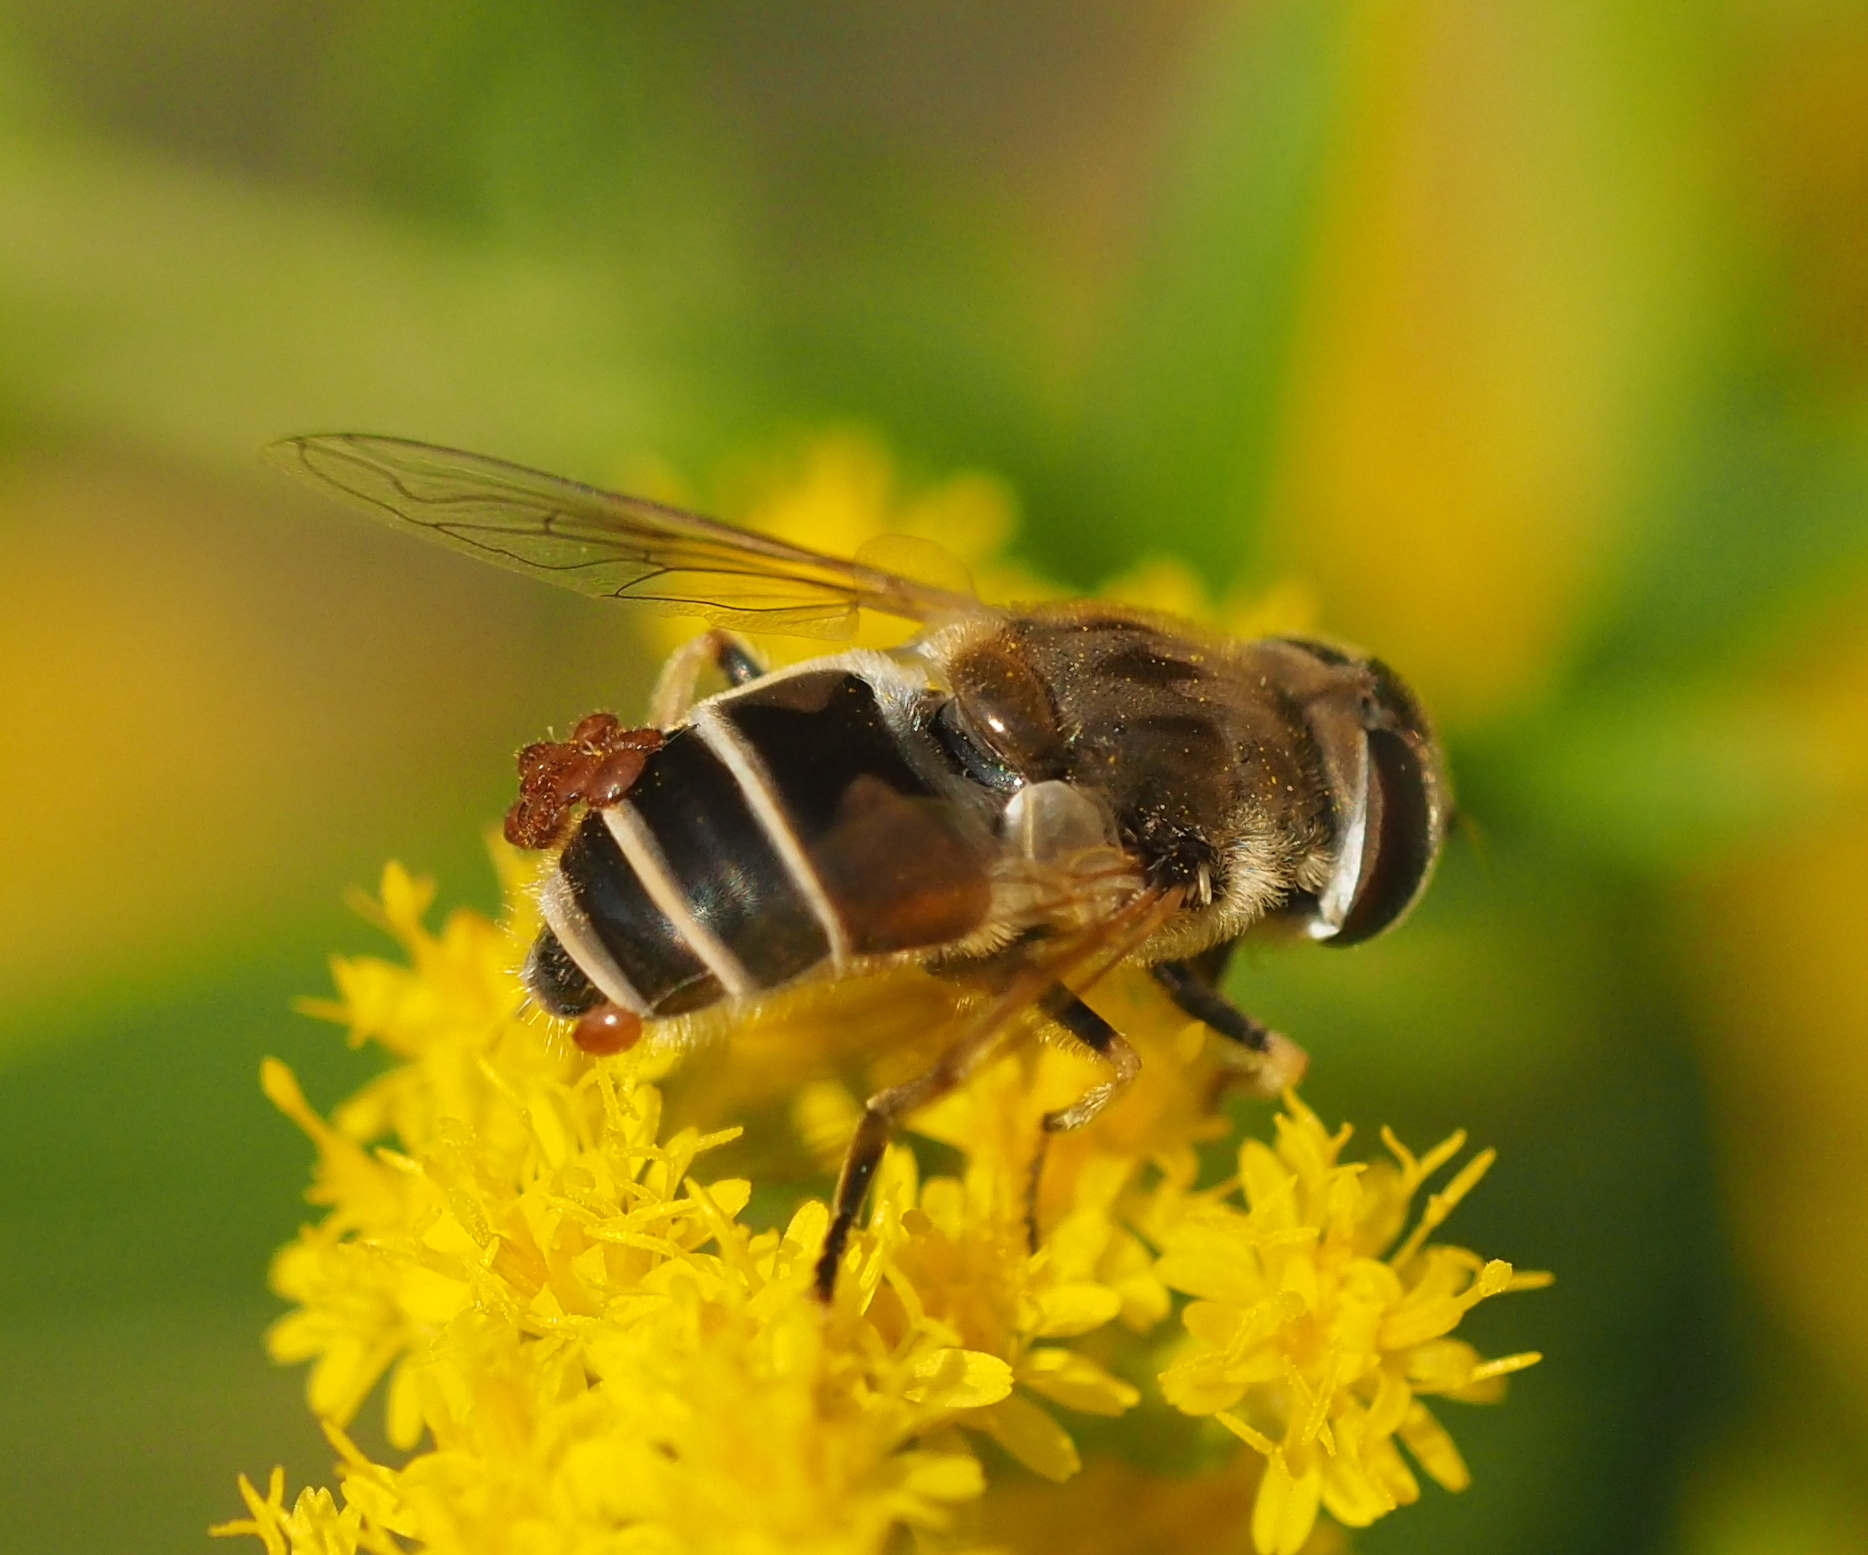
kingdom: Animalia
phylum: Arthropoda
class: Insecta
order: Diptera
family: Syrphidae
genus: Eristalis
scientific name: Eristalis arbustorum
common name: Hover fly
